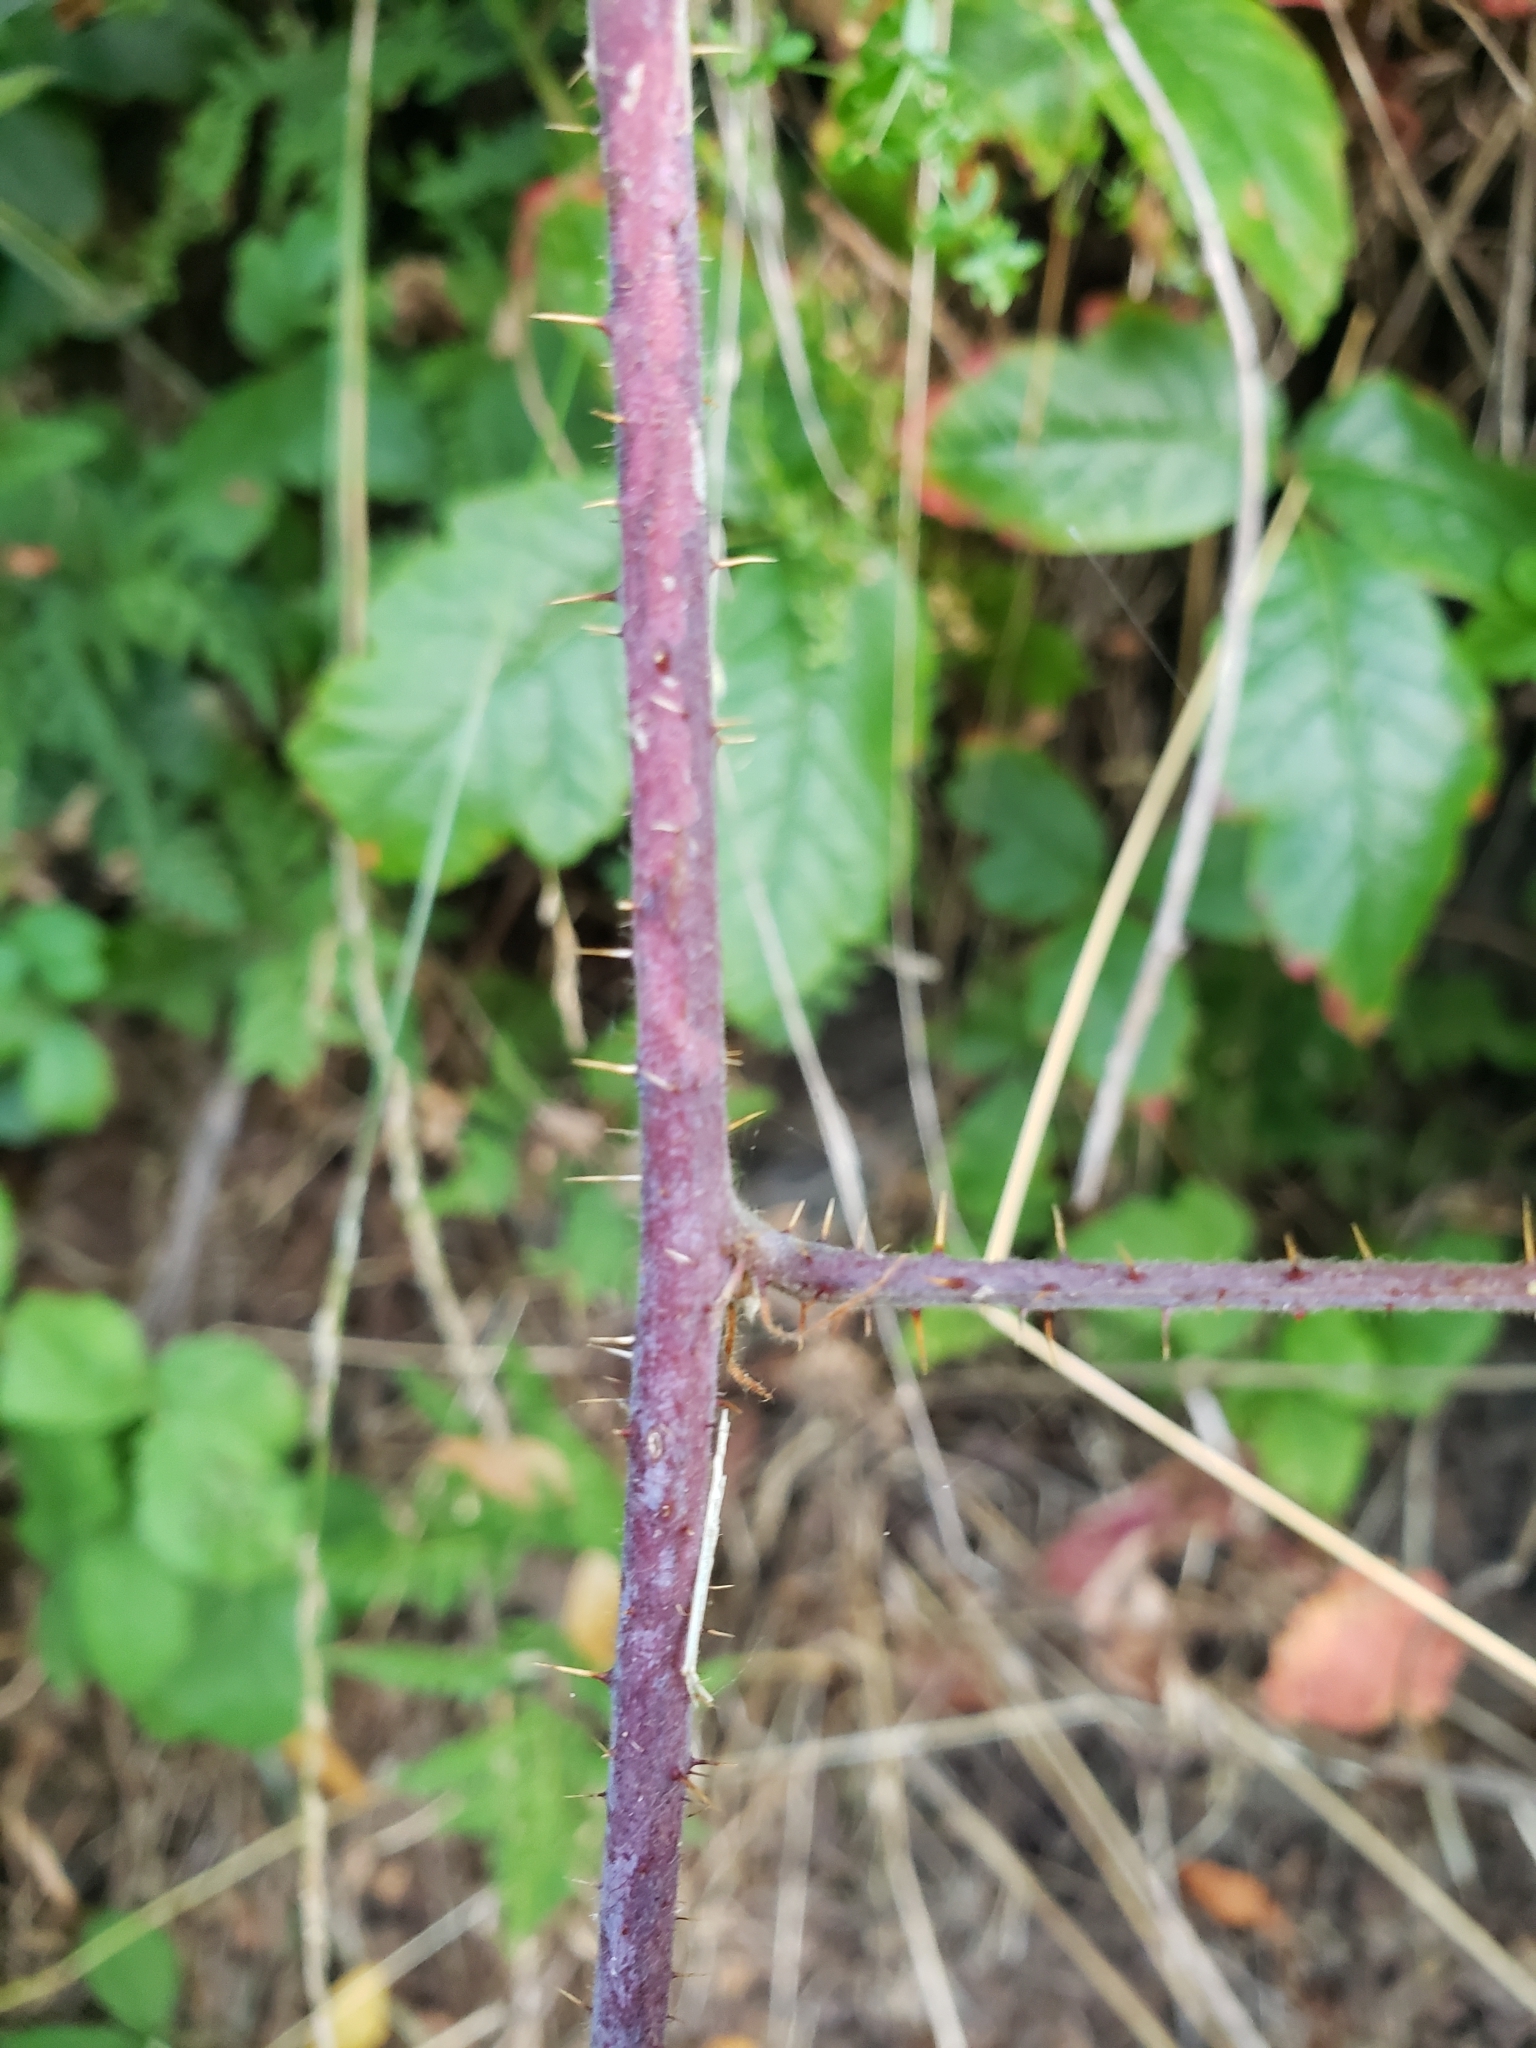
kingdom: Plantae
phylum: Tracheophyta
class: Magnoliopsida
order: Rosales
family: Rosaceae
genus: Rubus
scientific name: Rubus ursinus
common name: Pacific blackberry
